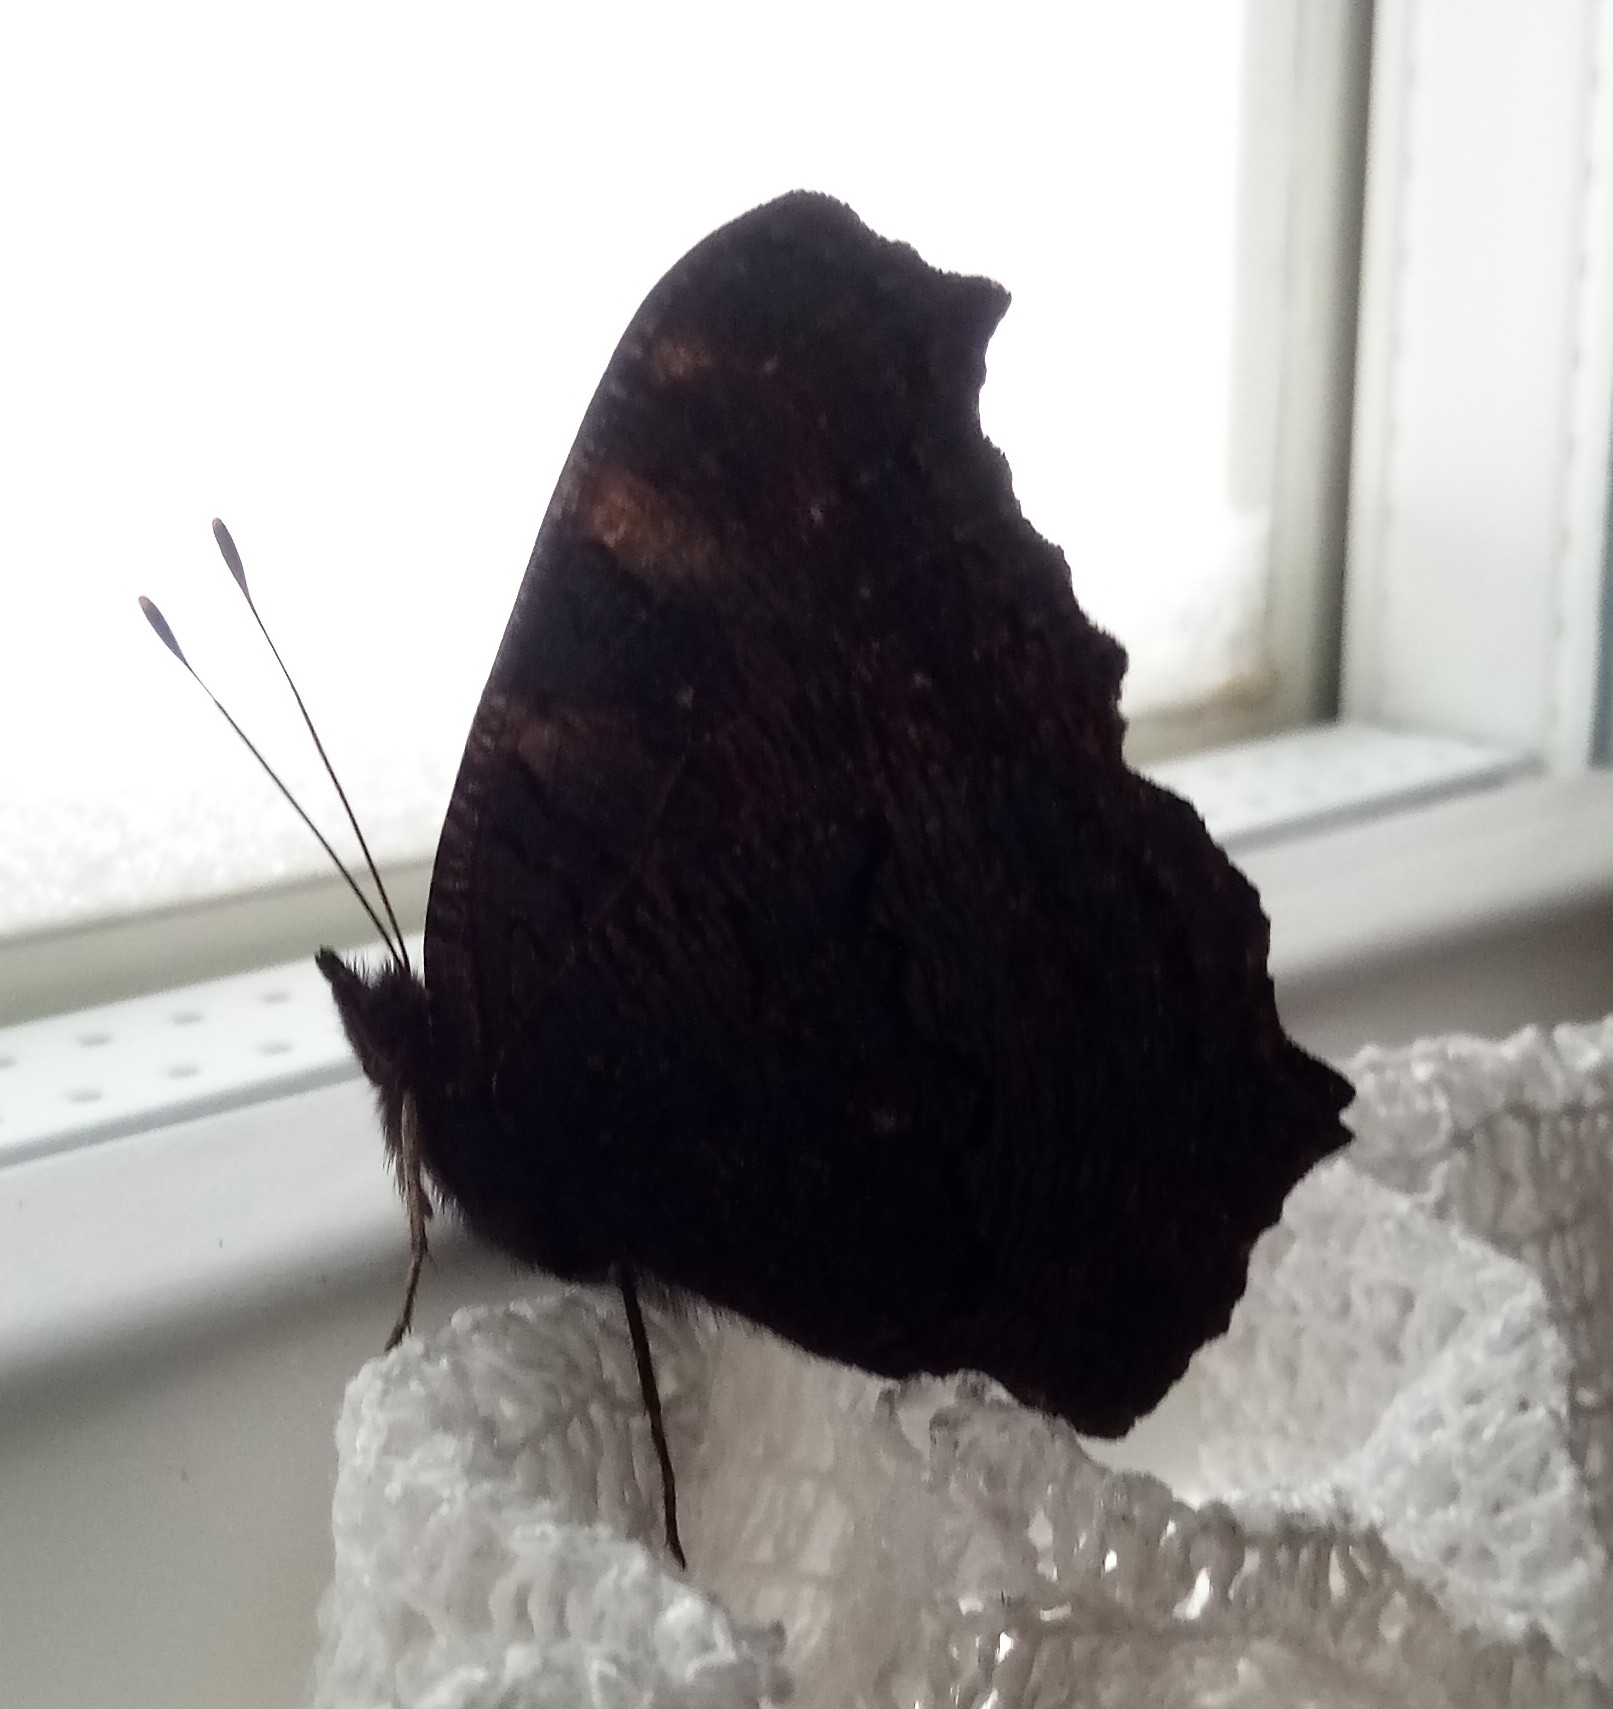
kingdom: Animalia
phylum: Arthropoda
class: Insecta
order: Lepidoptera
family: Nymphalidae
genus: Aglais
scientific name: Aglais io
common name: Peacock
